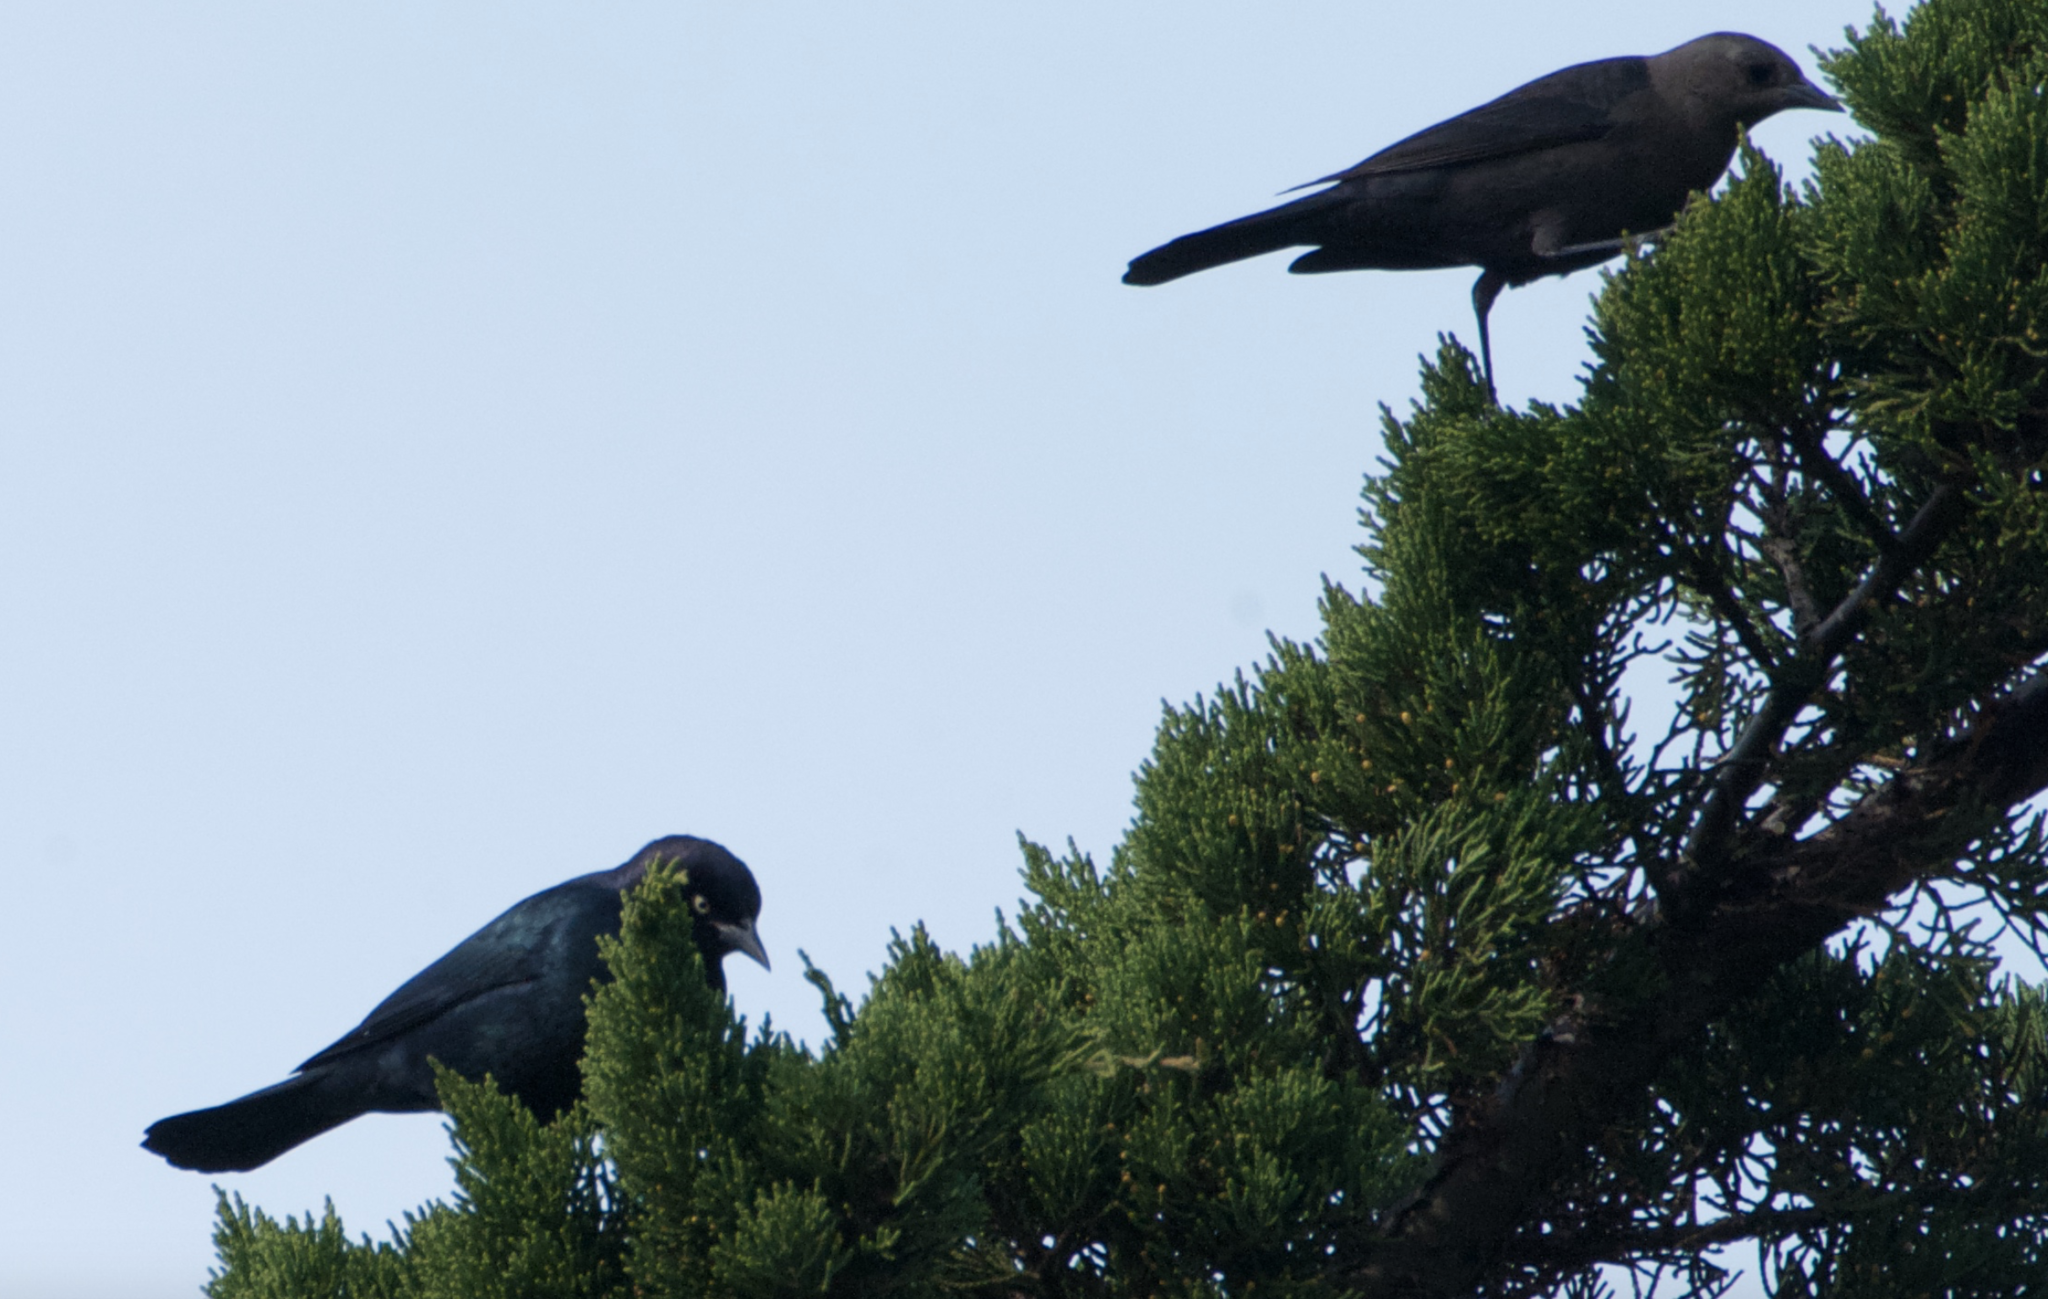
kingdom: Animalia
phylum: Chordata
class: Aves
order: Passeriformes
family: Icteridae
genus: Euphagus
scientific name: Euphagus cyanocephalus
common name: Brewer's blackbird
